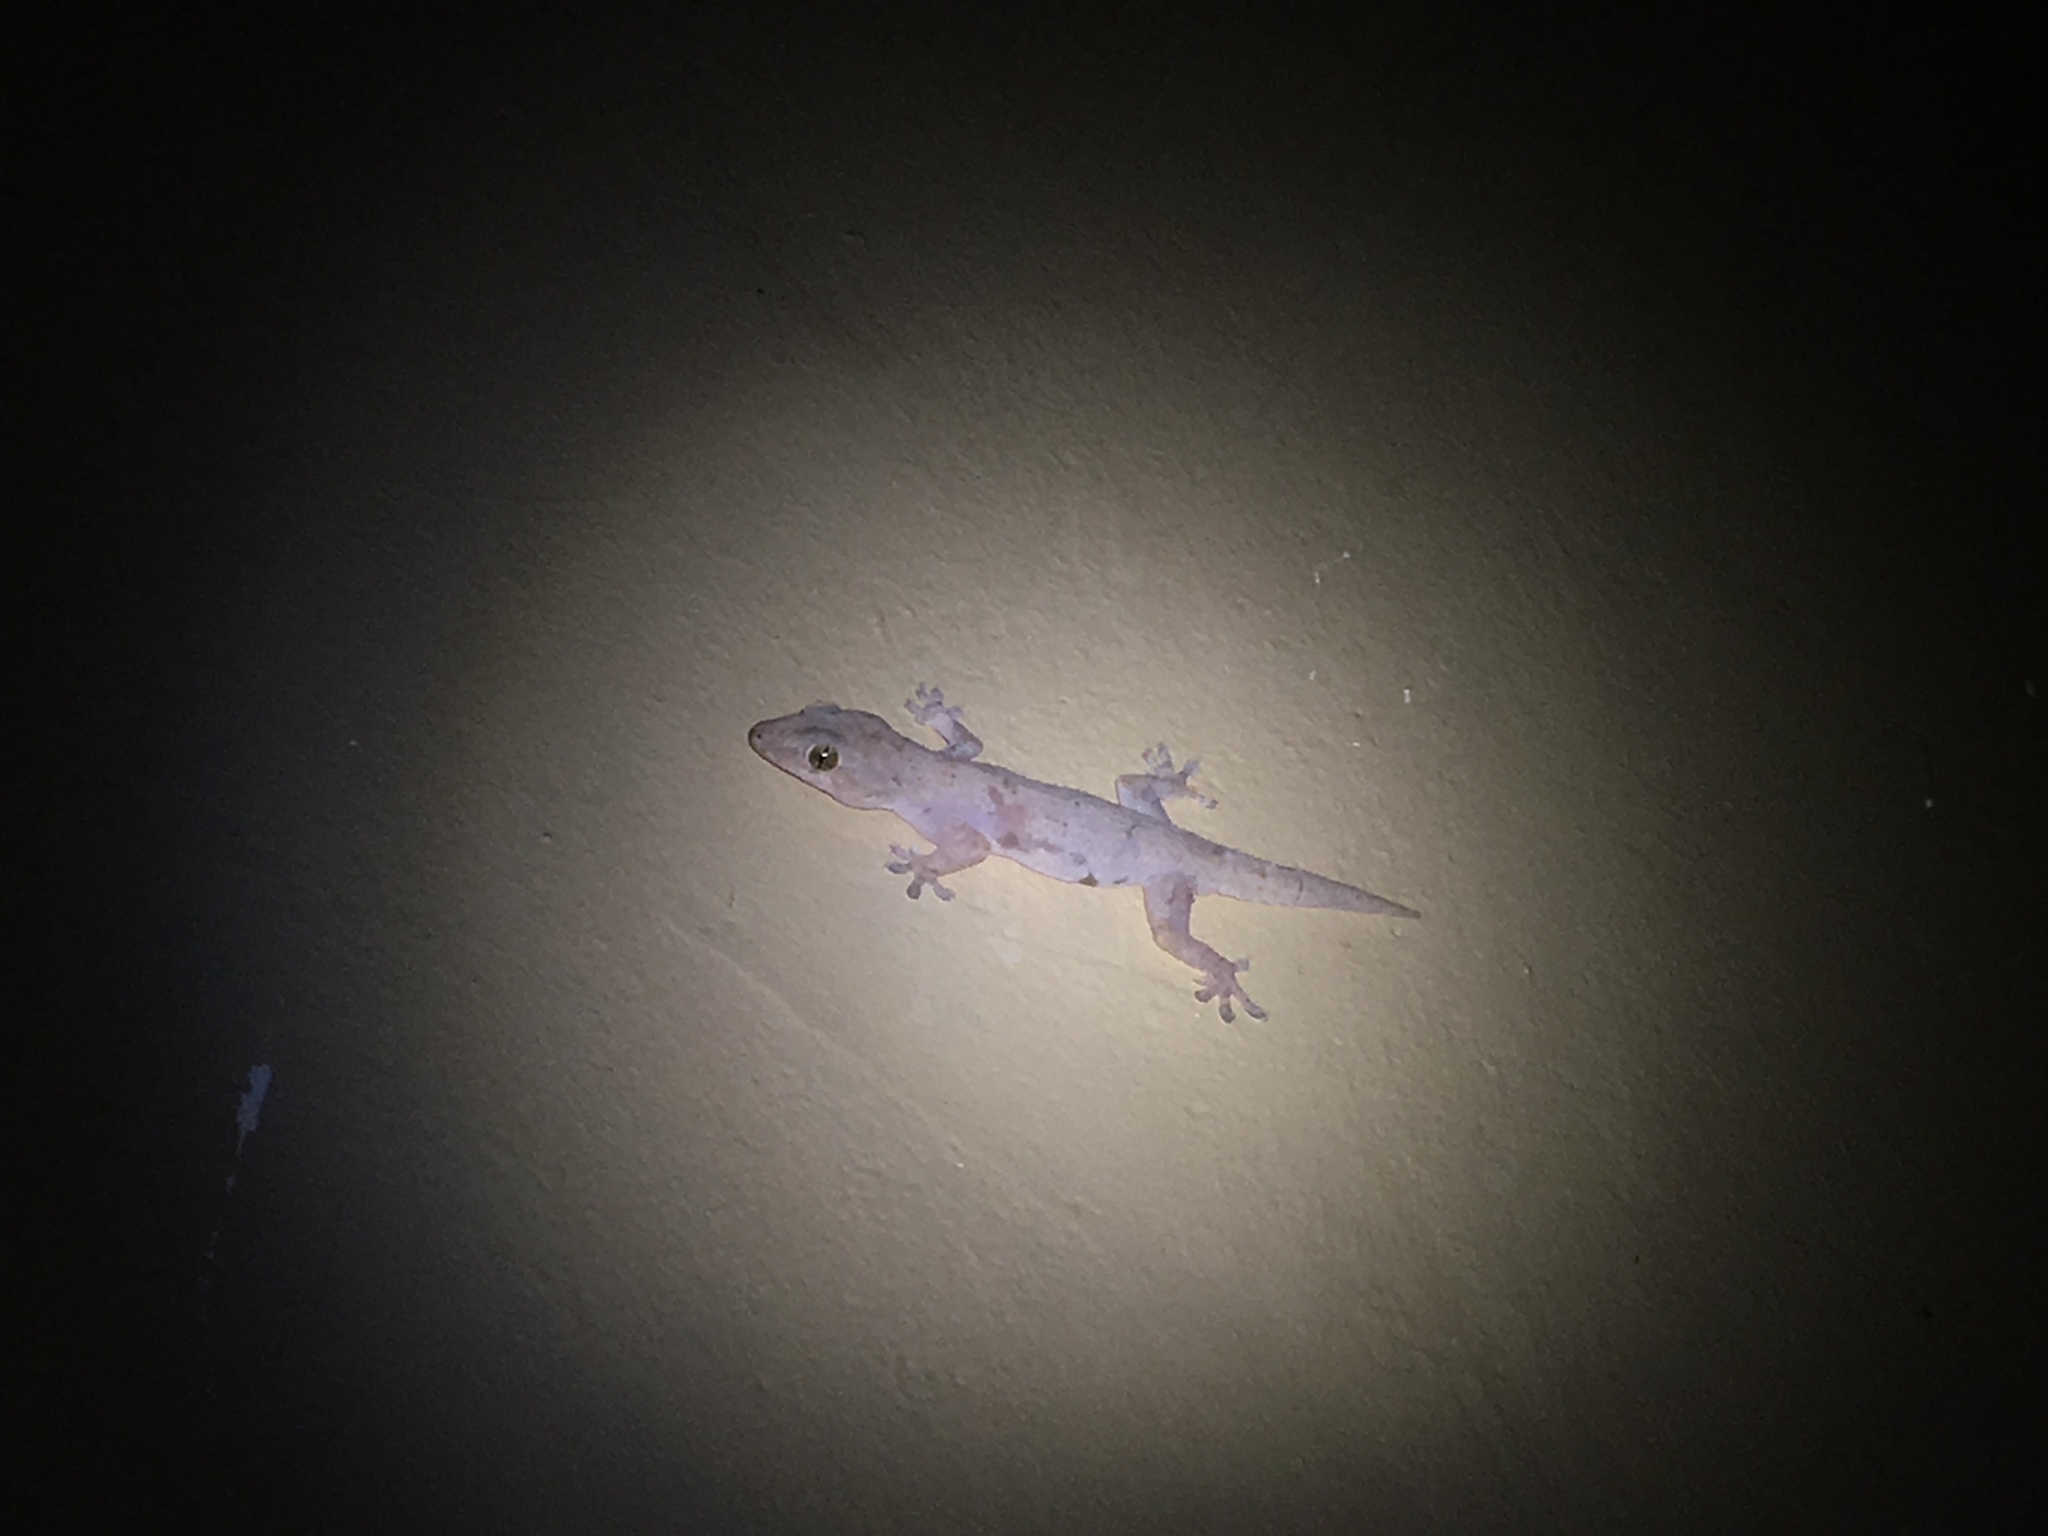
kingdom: Animalia
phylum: Chordata
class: Squamata
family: Gekkonidae
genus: Hemidactylus
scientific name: Hemidactylus mabouia
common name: House gecko
